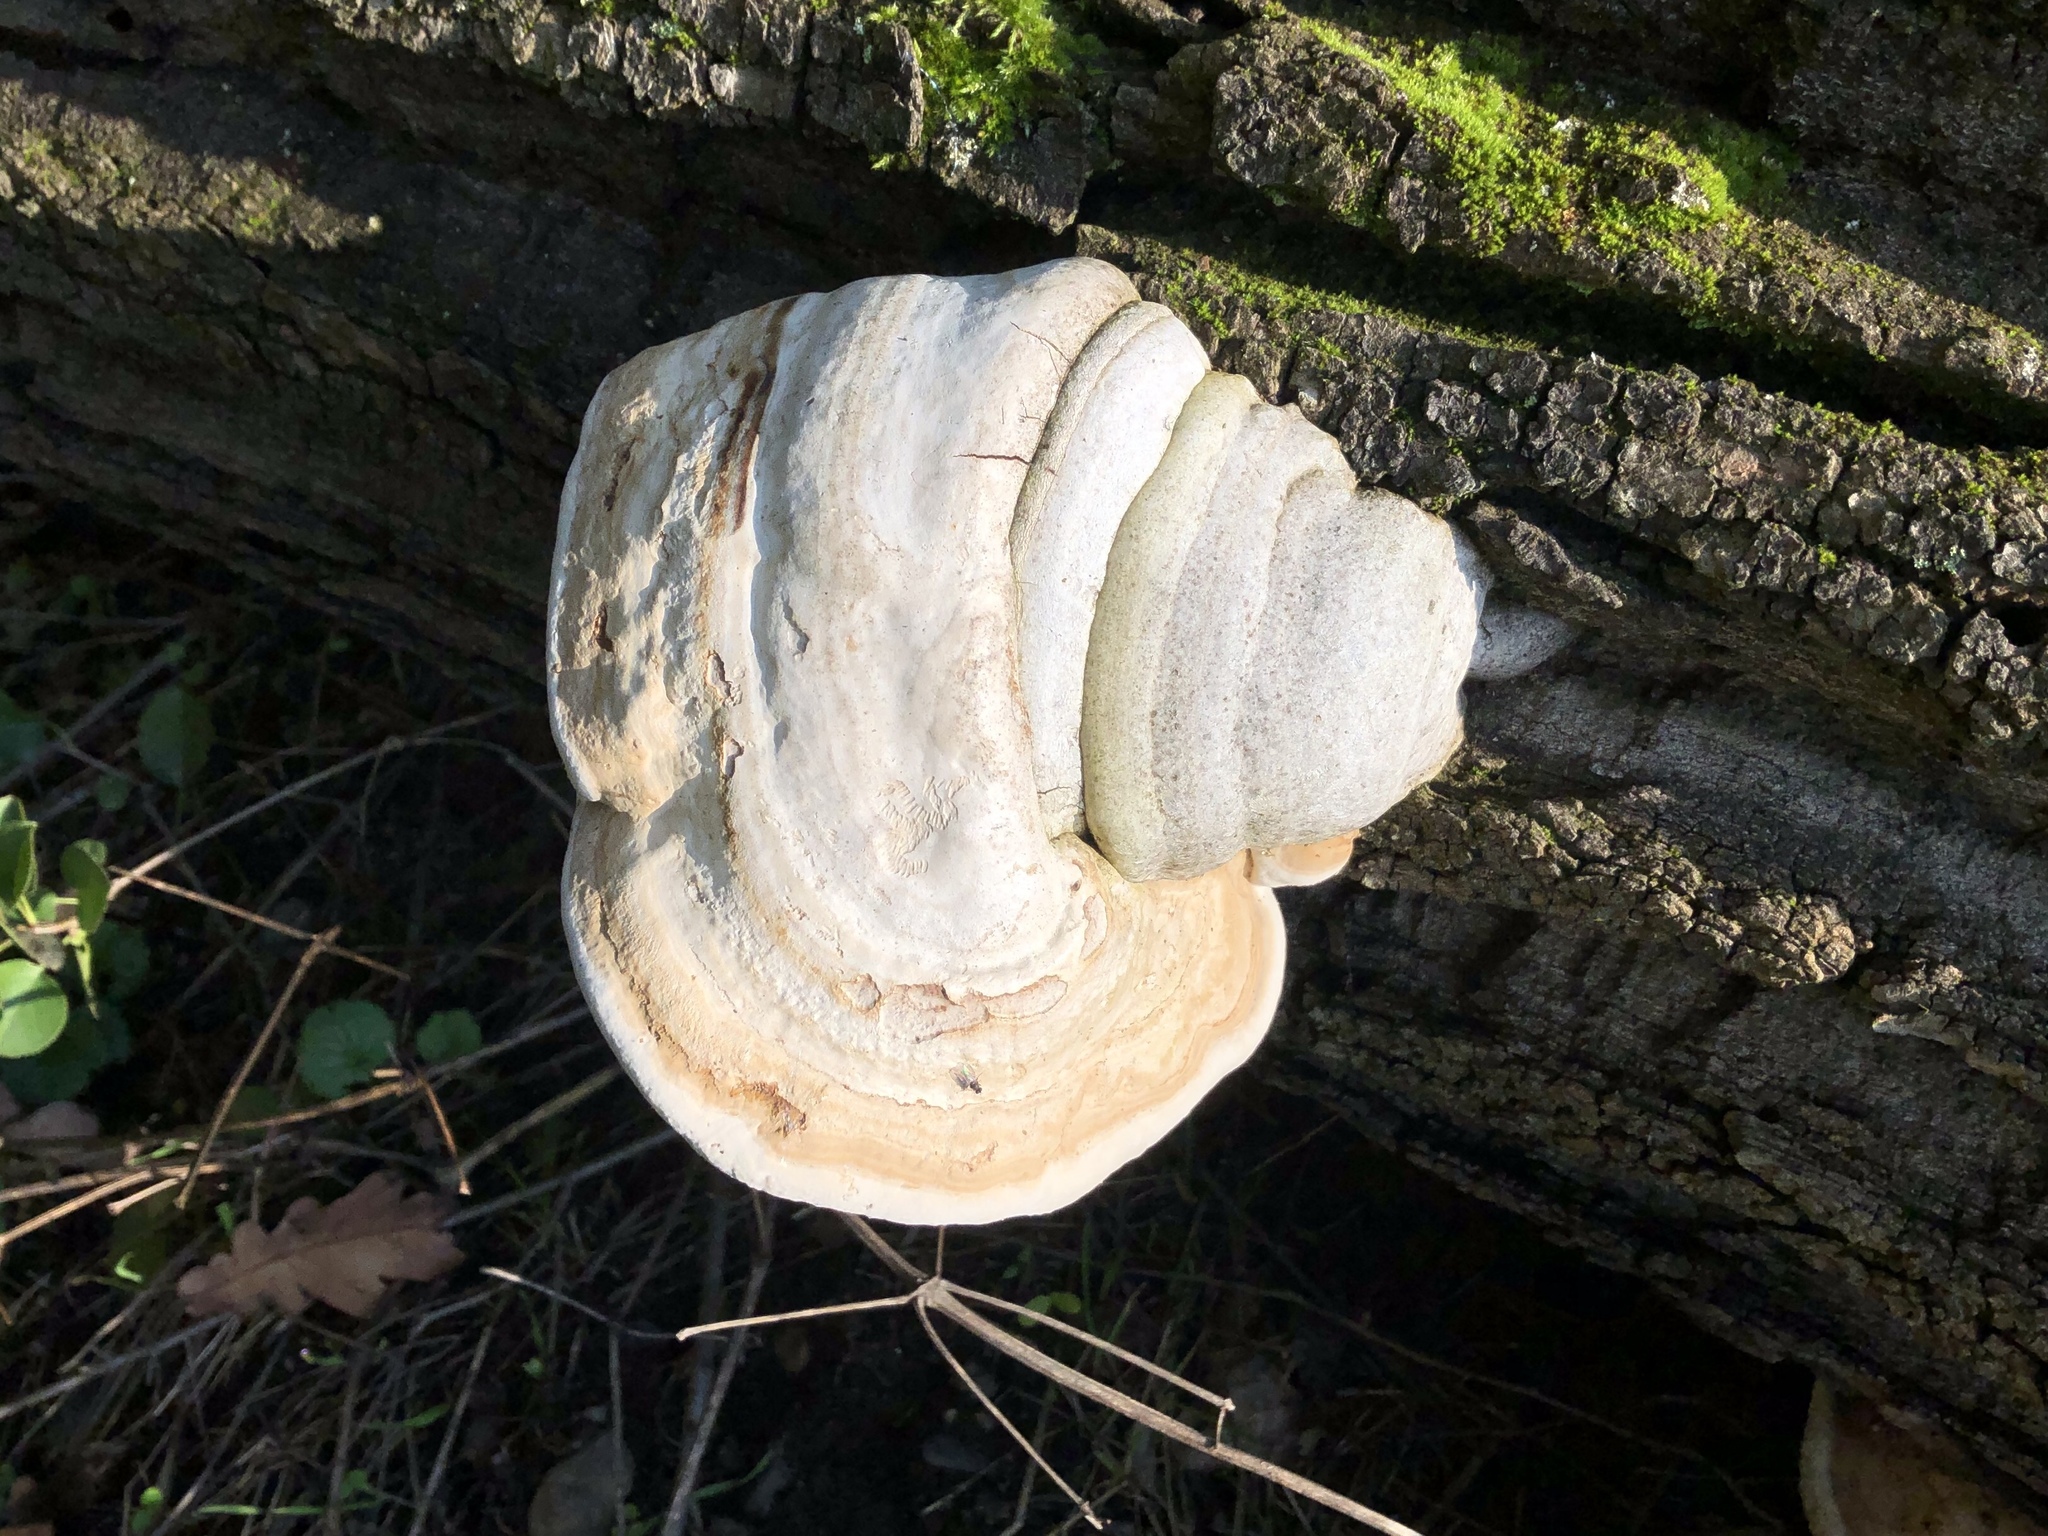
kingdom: Fungi
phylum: Basidiomycota
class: Agaricomycetes
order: Polyporales
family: Polyporaceae
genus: Fomes
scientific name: Fomes fomentarius
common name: Hoof fungus
